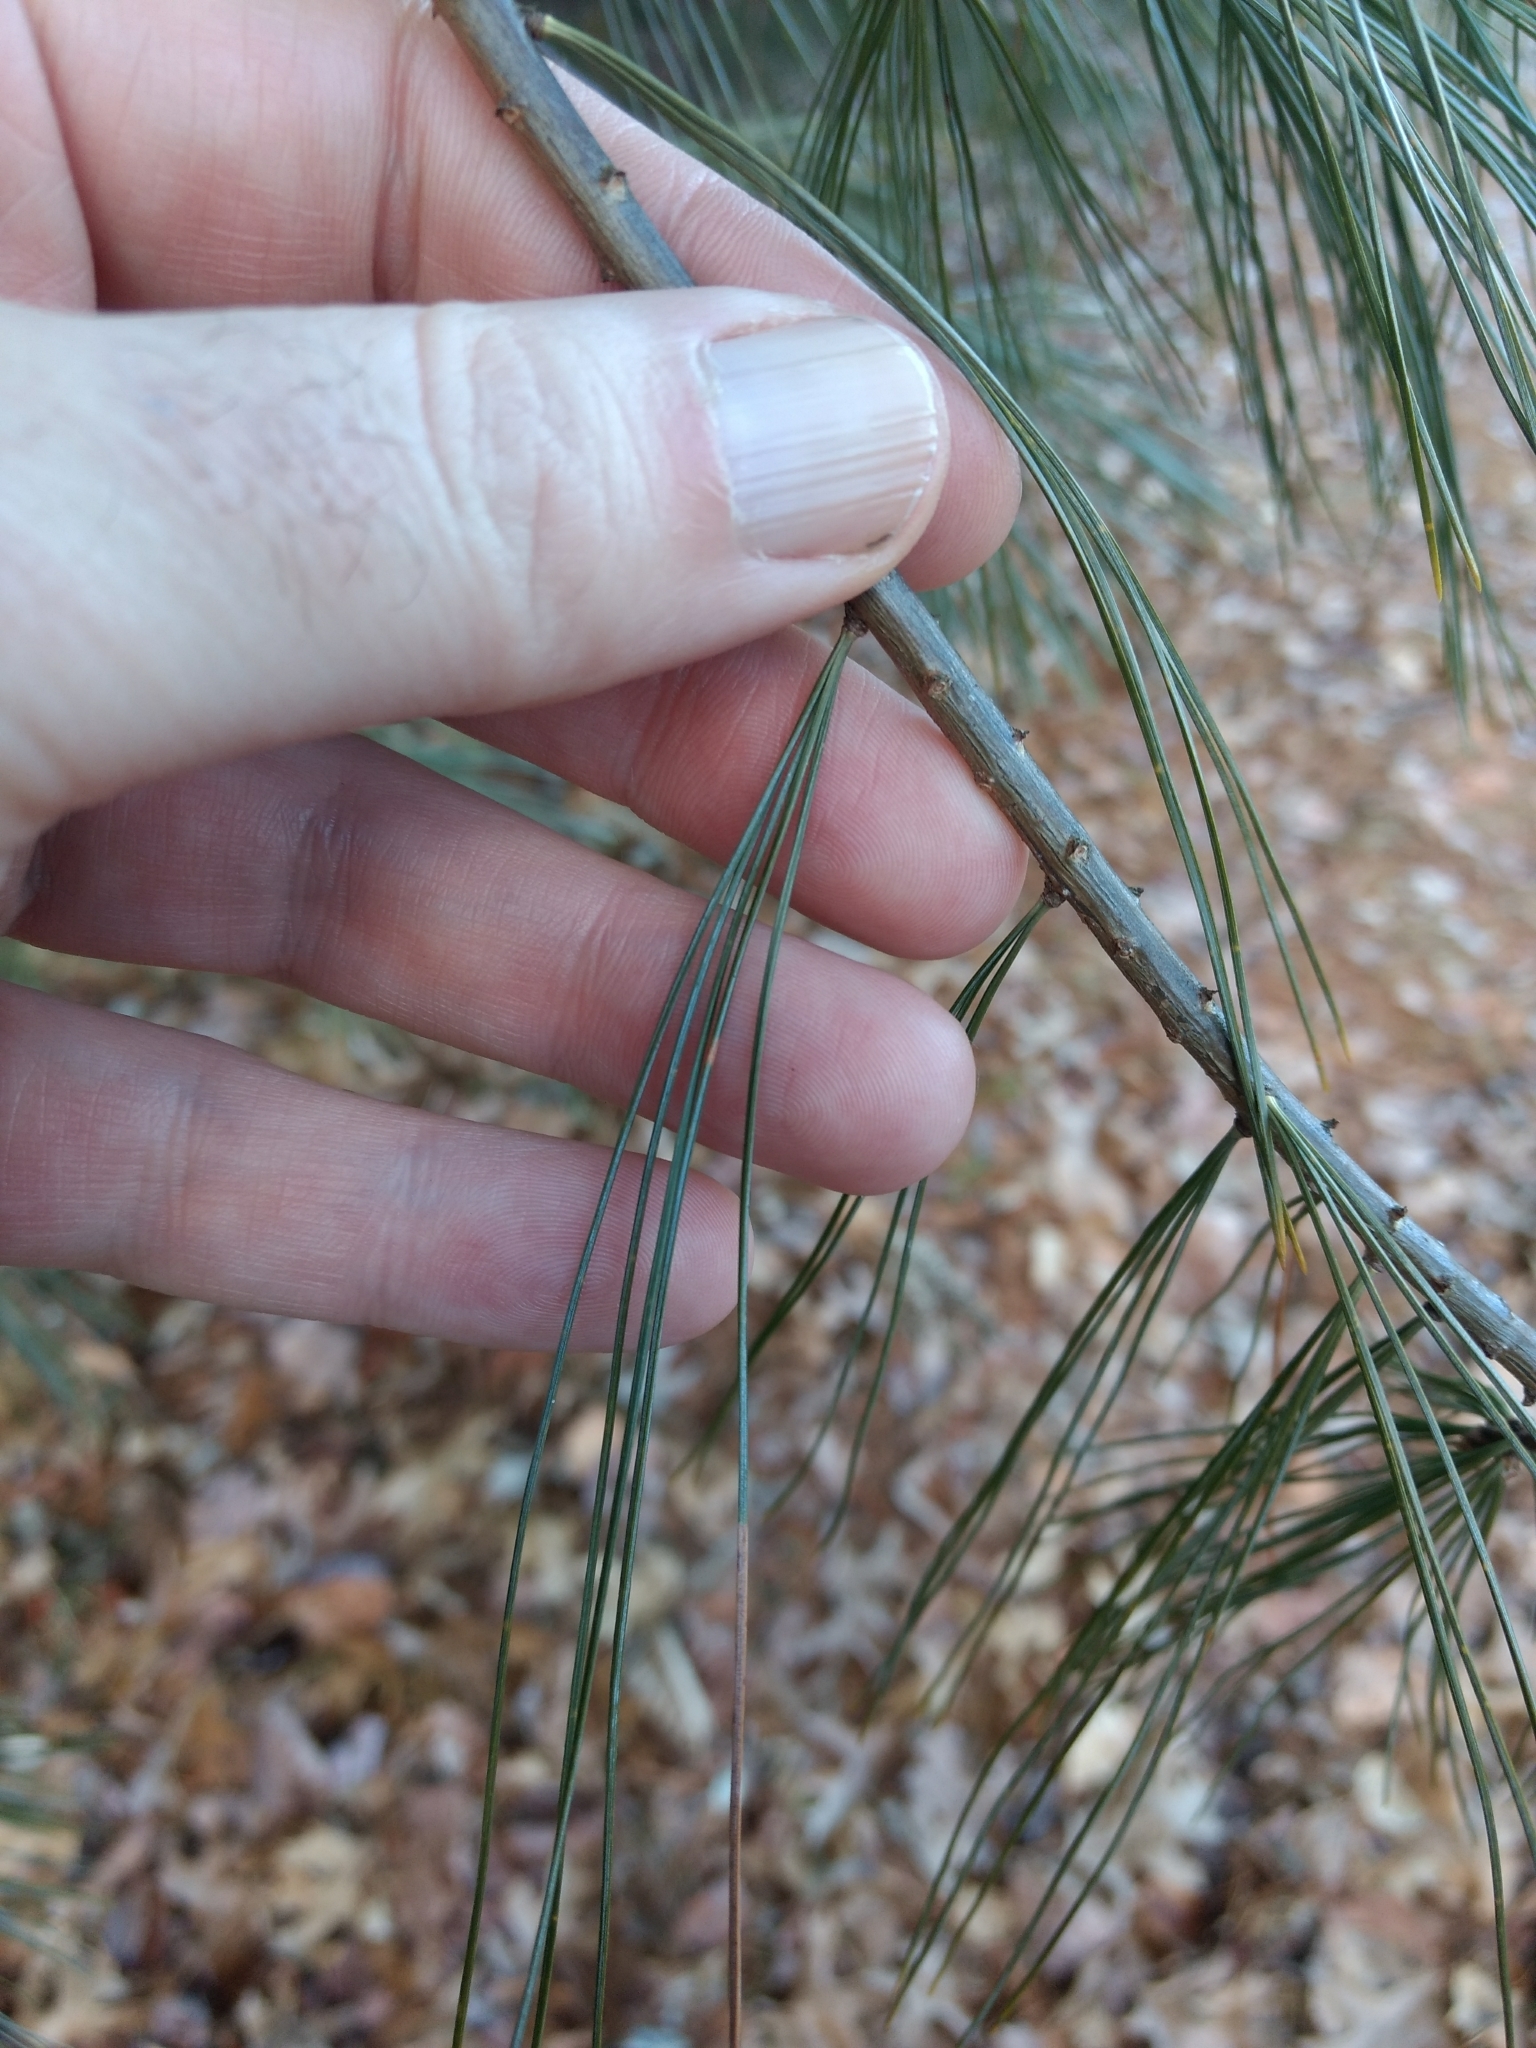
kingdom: Plantae
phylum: Tracheophyta
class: Pinopsida
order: Pinales
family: Pinaceae
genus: Pinus
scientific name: Pinus strobus
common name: Weymouth pine
